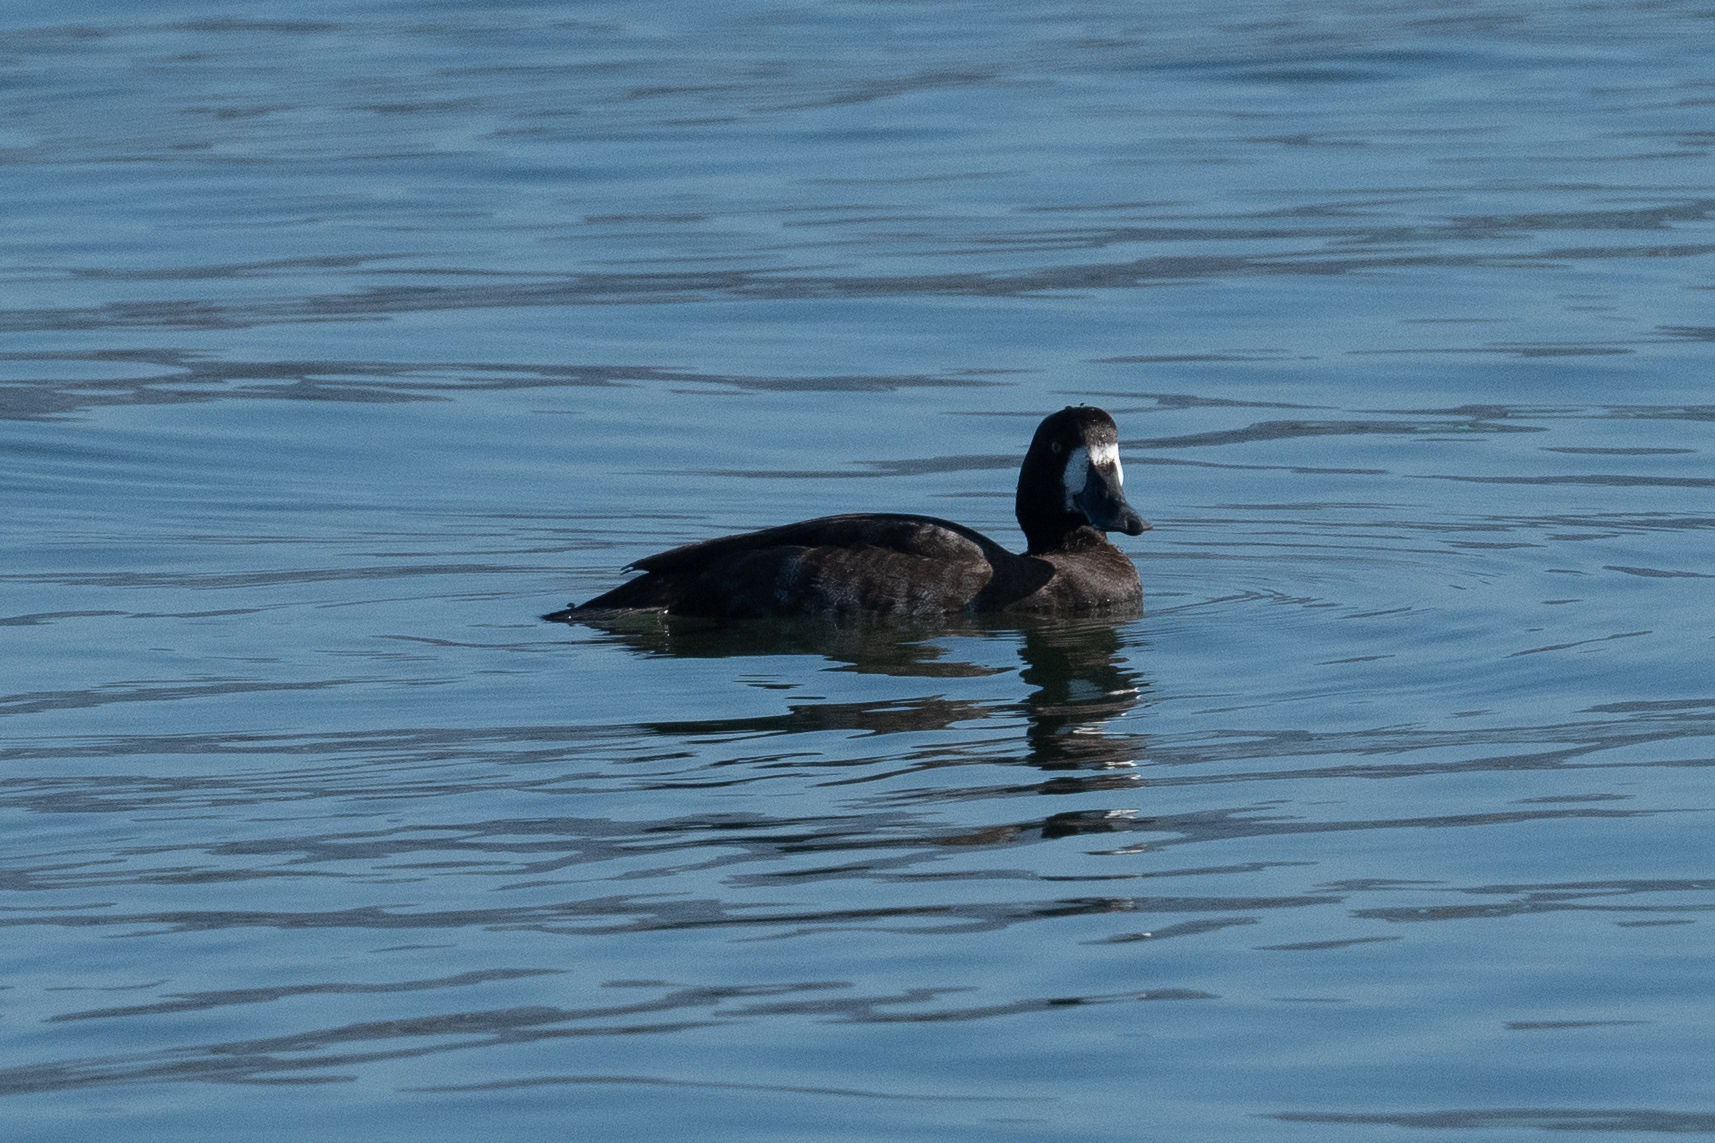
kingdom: Animalia
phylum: Chordata
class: Aves
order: Anseriformes
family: Anatidae
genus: Aythya
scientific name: Aythya marila
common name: Greater scaup
